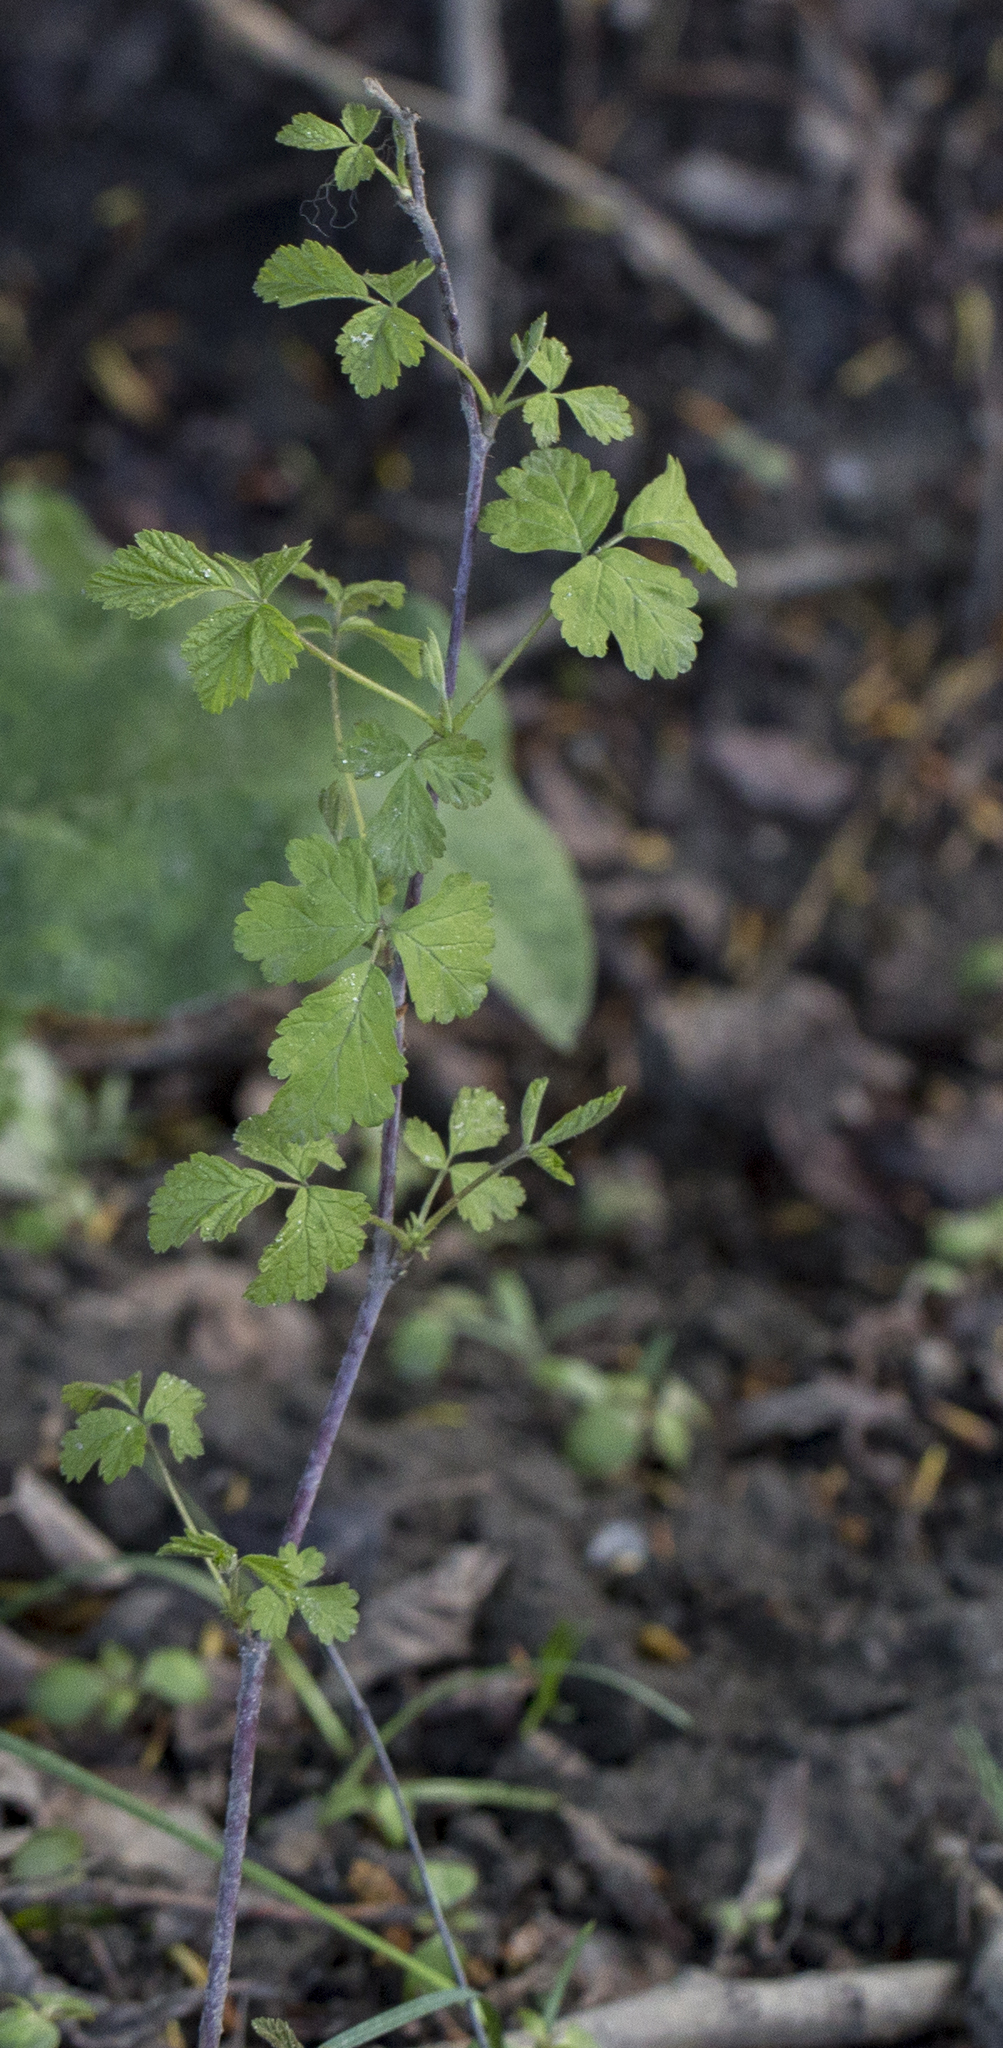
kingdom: Plantae
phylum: Tracheophyta
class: Magnoliopsida
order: Rosales
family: Rosaceae
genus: Rubus
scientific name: Rubus caesius
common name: Dewberry
